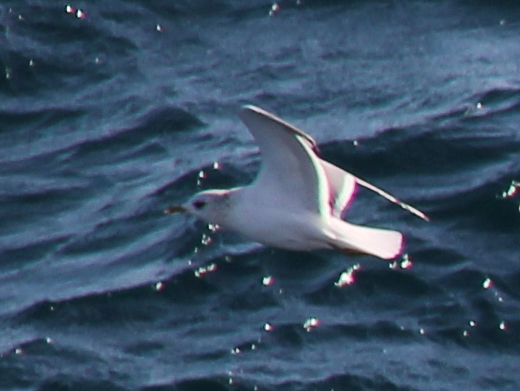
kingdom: Animalia
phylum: Chordata
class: Aves
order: Charadriiformes
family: Laridae
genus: Larus
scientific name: Larus canus
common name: Mew gull
